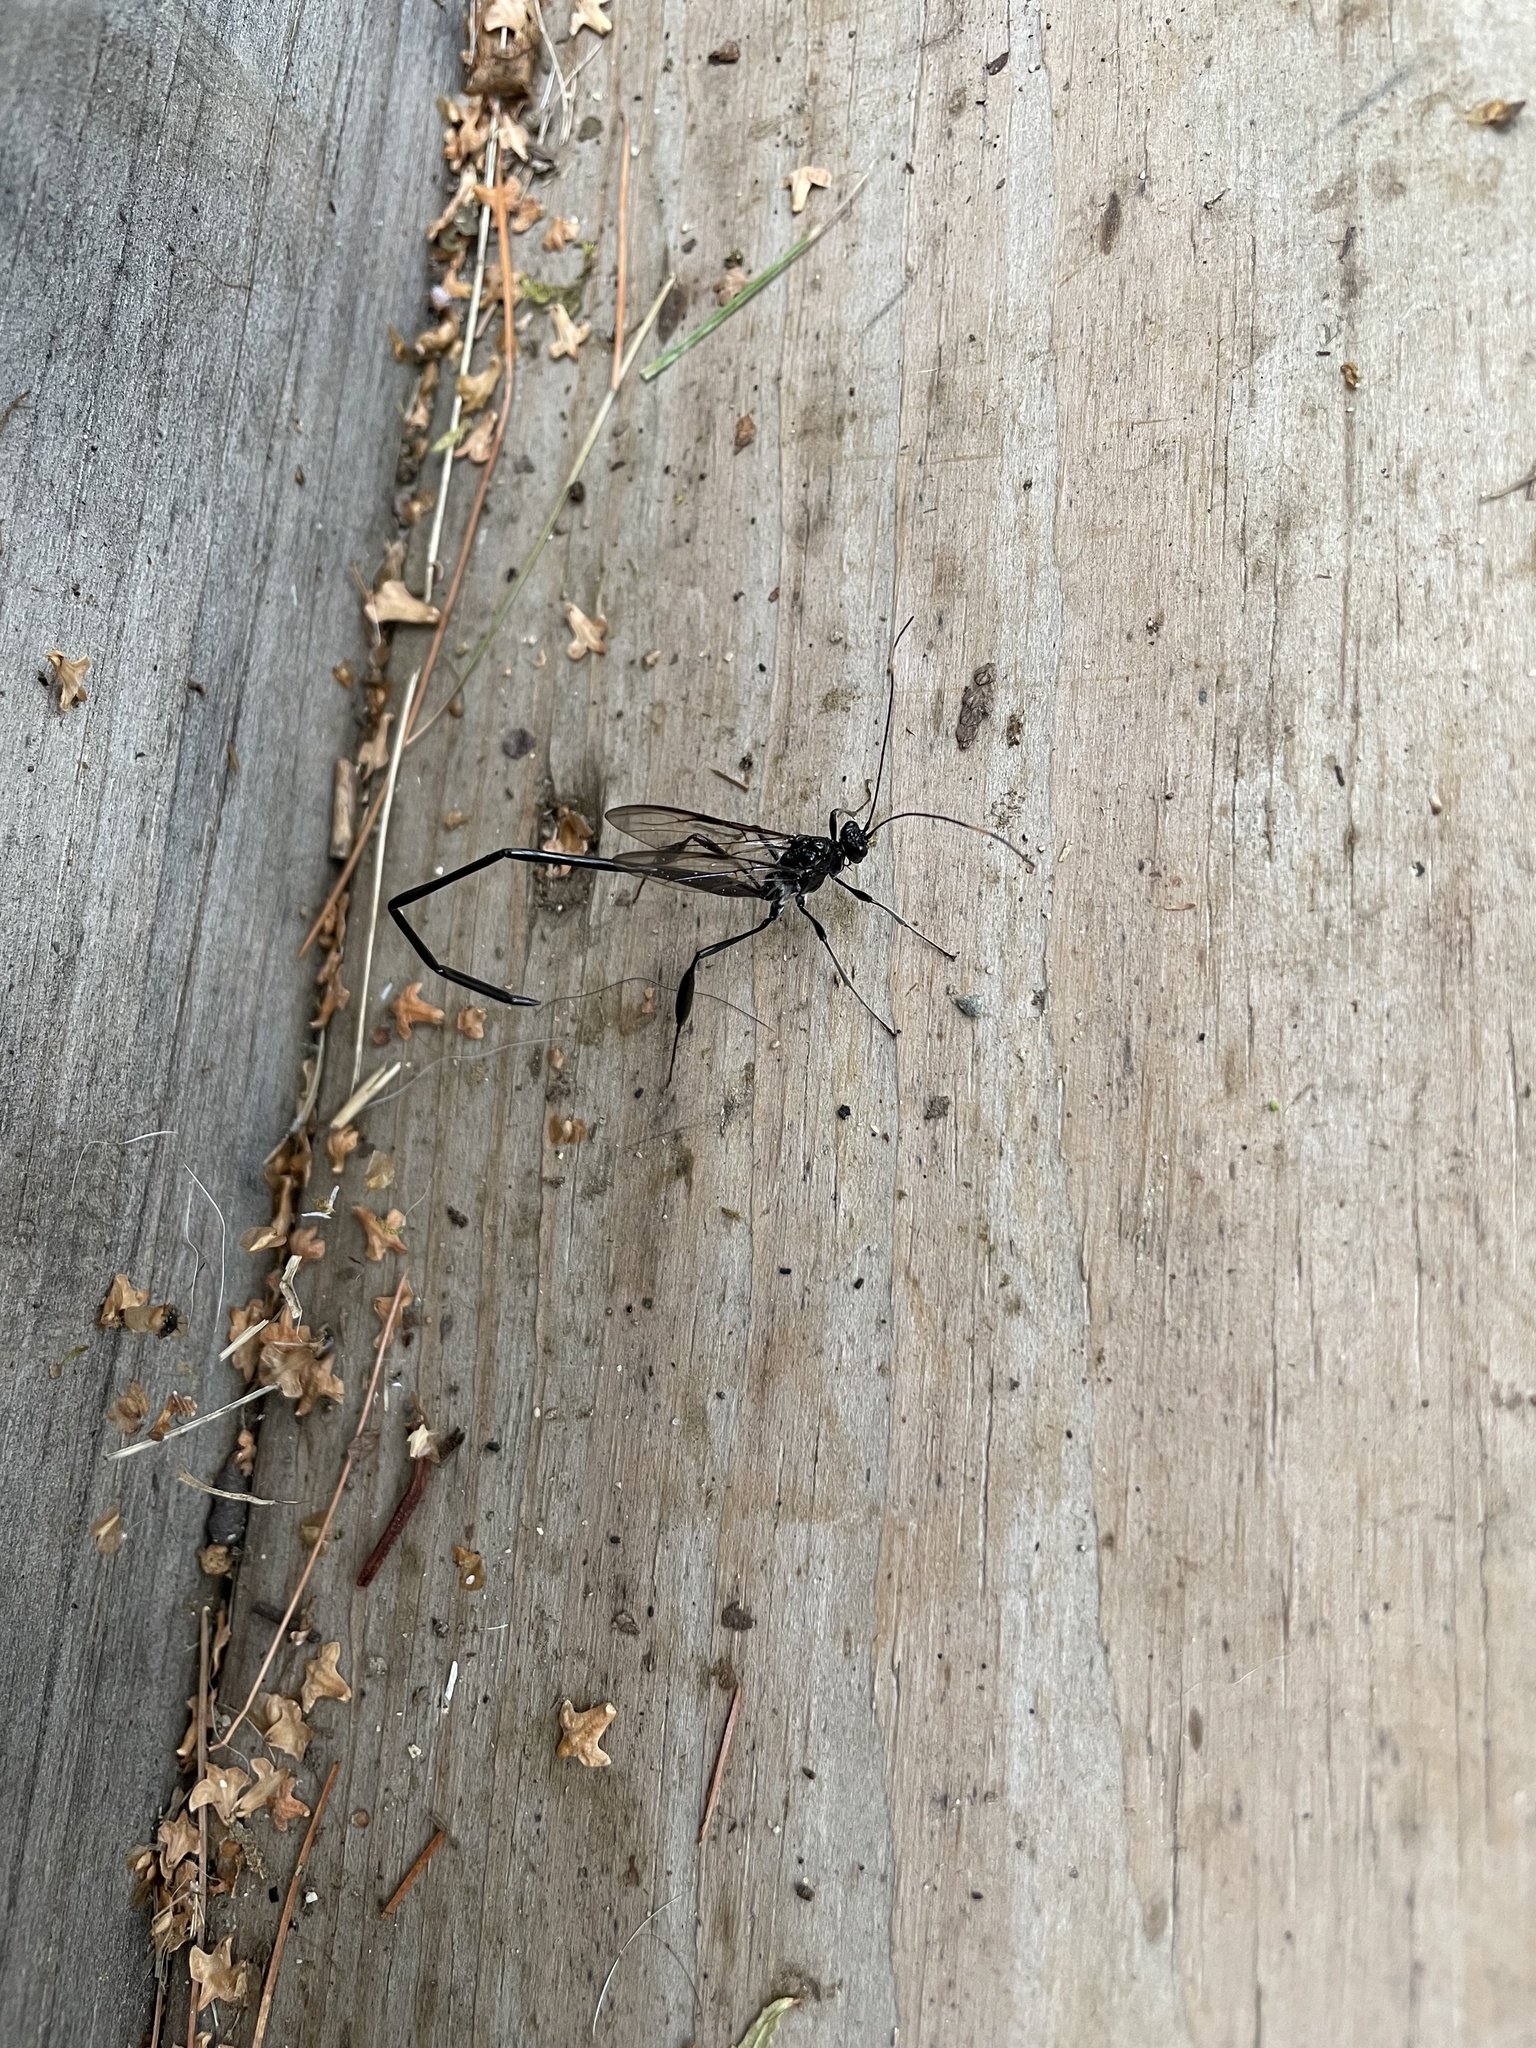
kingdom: Animalia
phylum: Arthropoda
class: Insecta
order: Hymenoptera
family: Pelecinidae
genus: Pelecinus
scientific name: Pelecinus polyturator
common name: American pelecinid wasp
